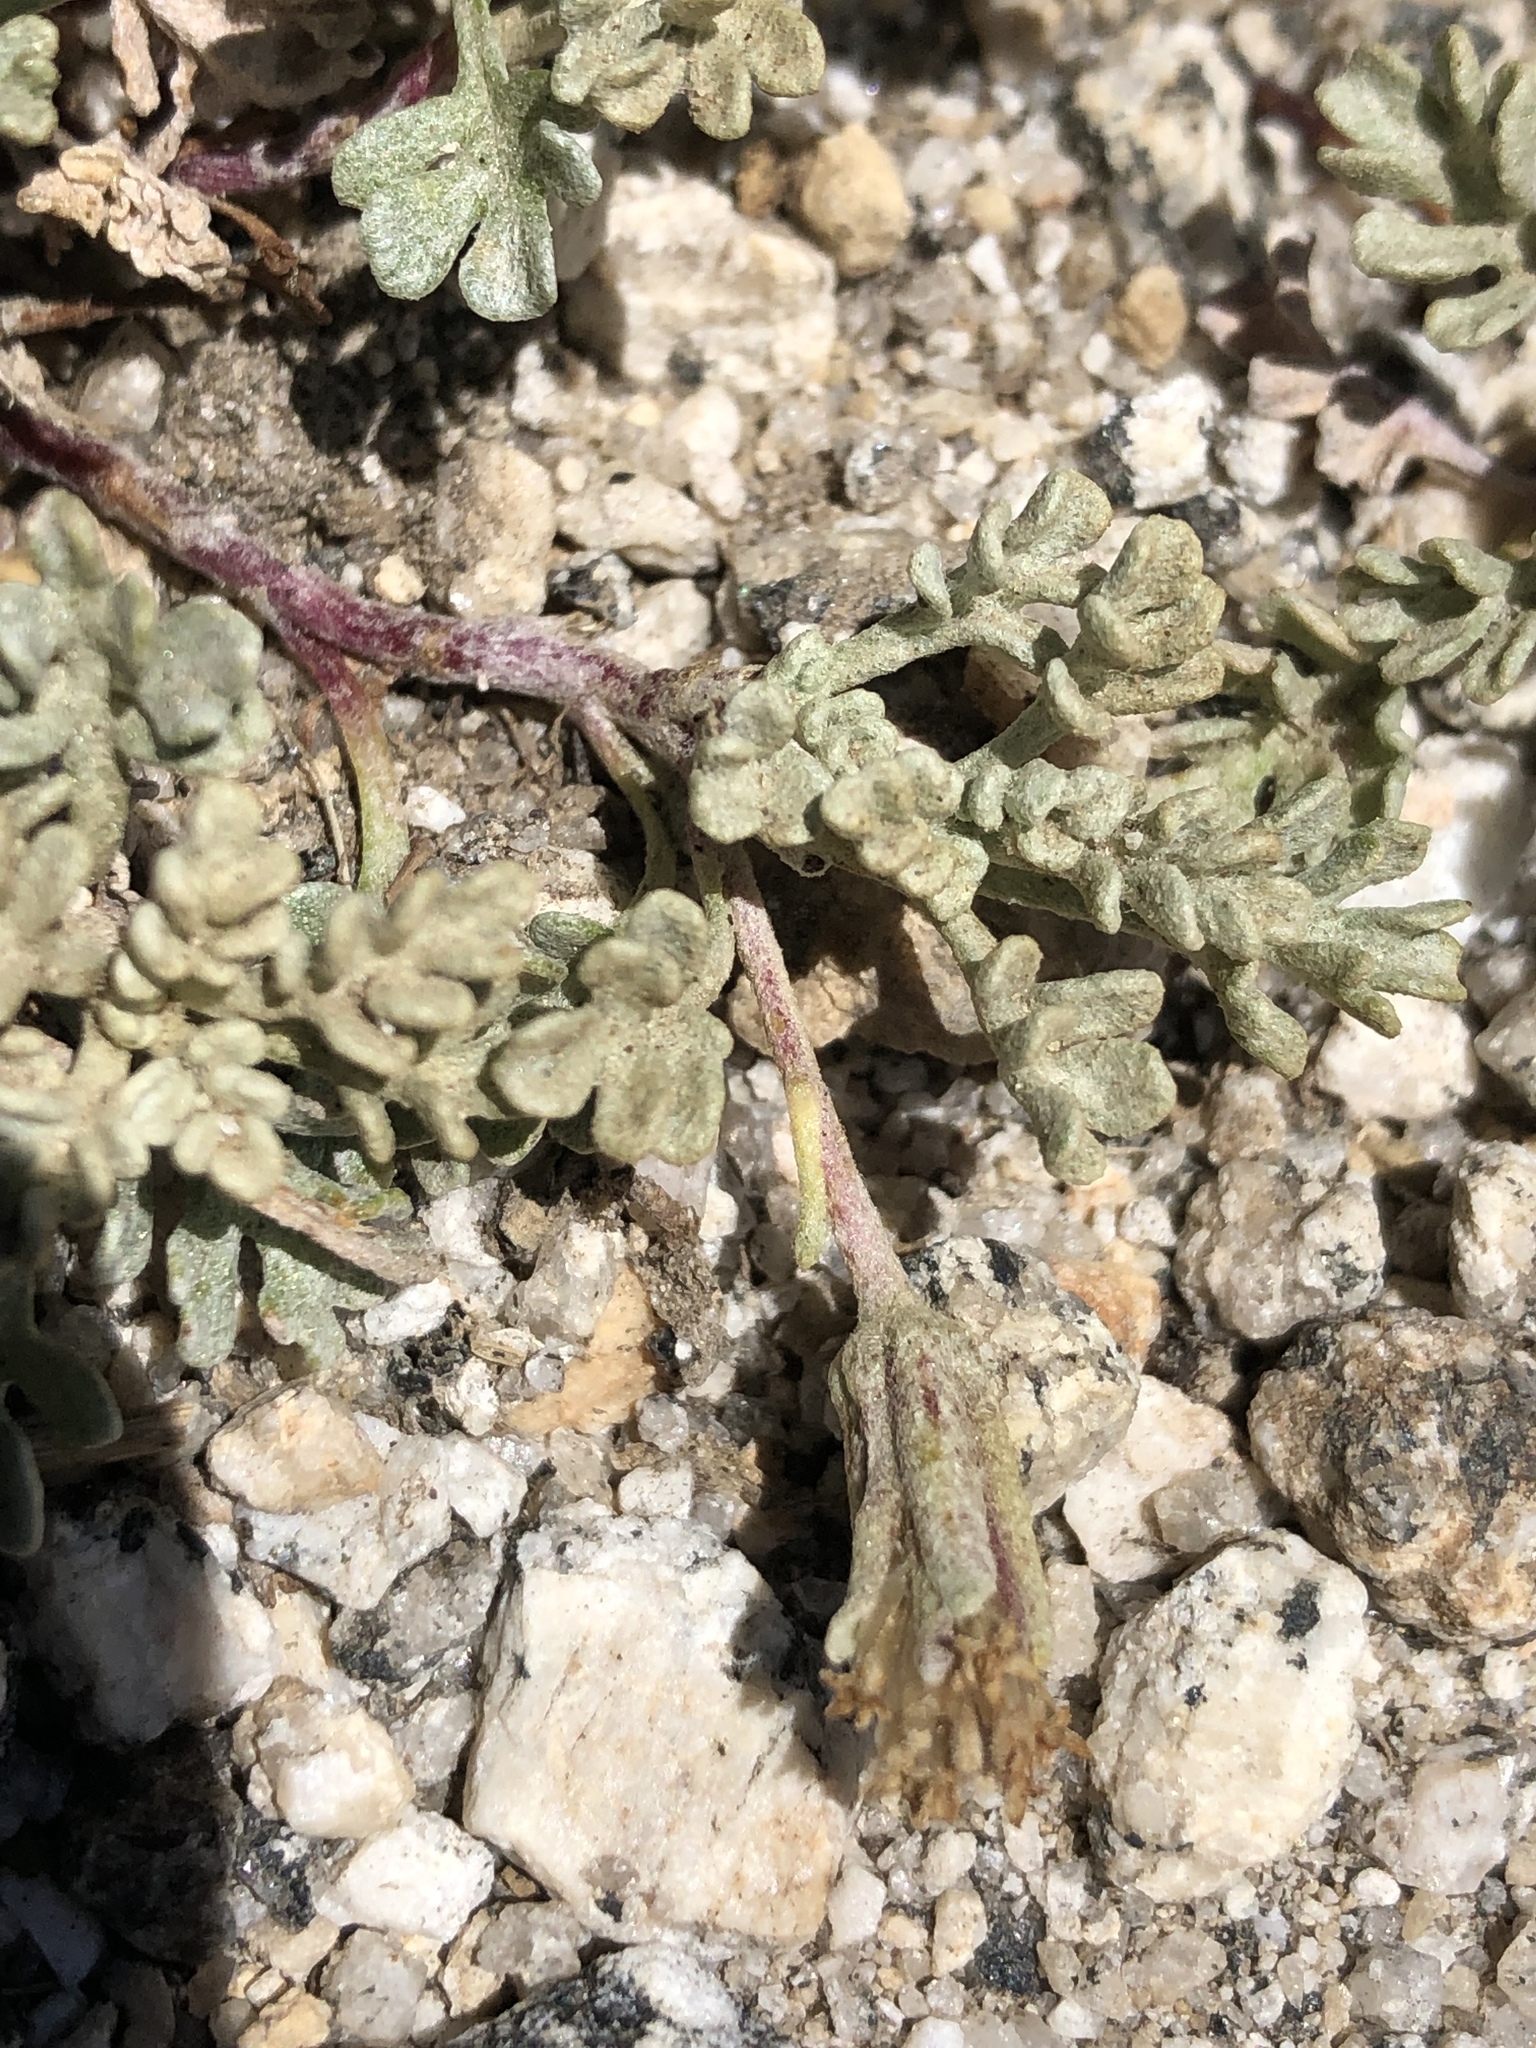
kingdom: Plantae
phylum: Tracheophyta
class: Magnoliopsida
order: Asterales
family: Asteraceae
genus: Chaenactis
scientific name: Chaenactis alpigena
